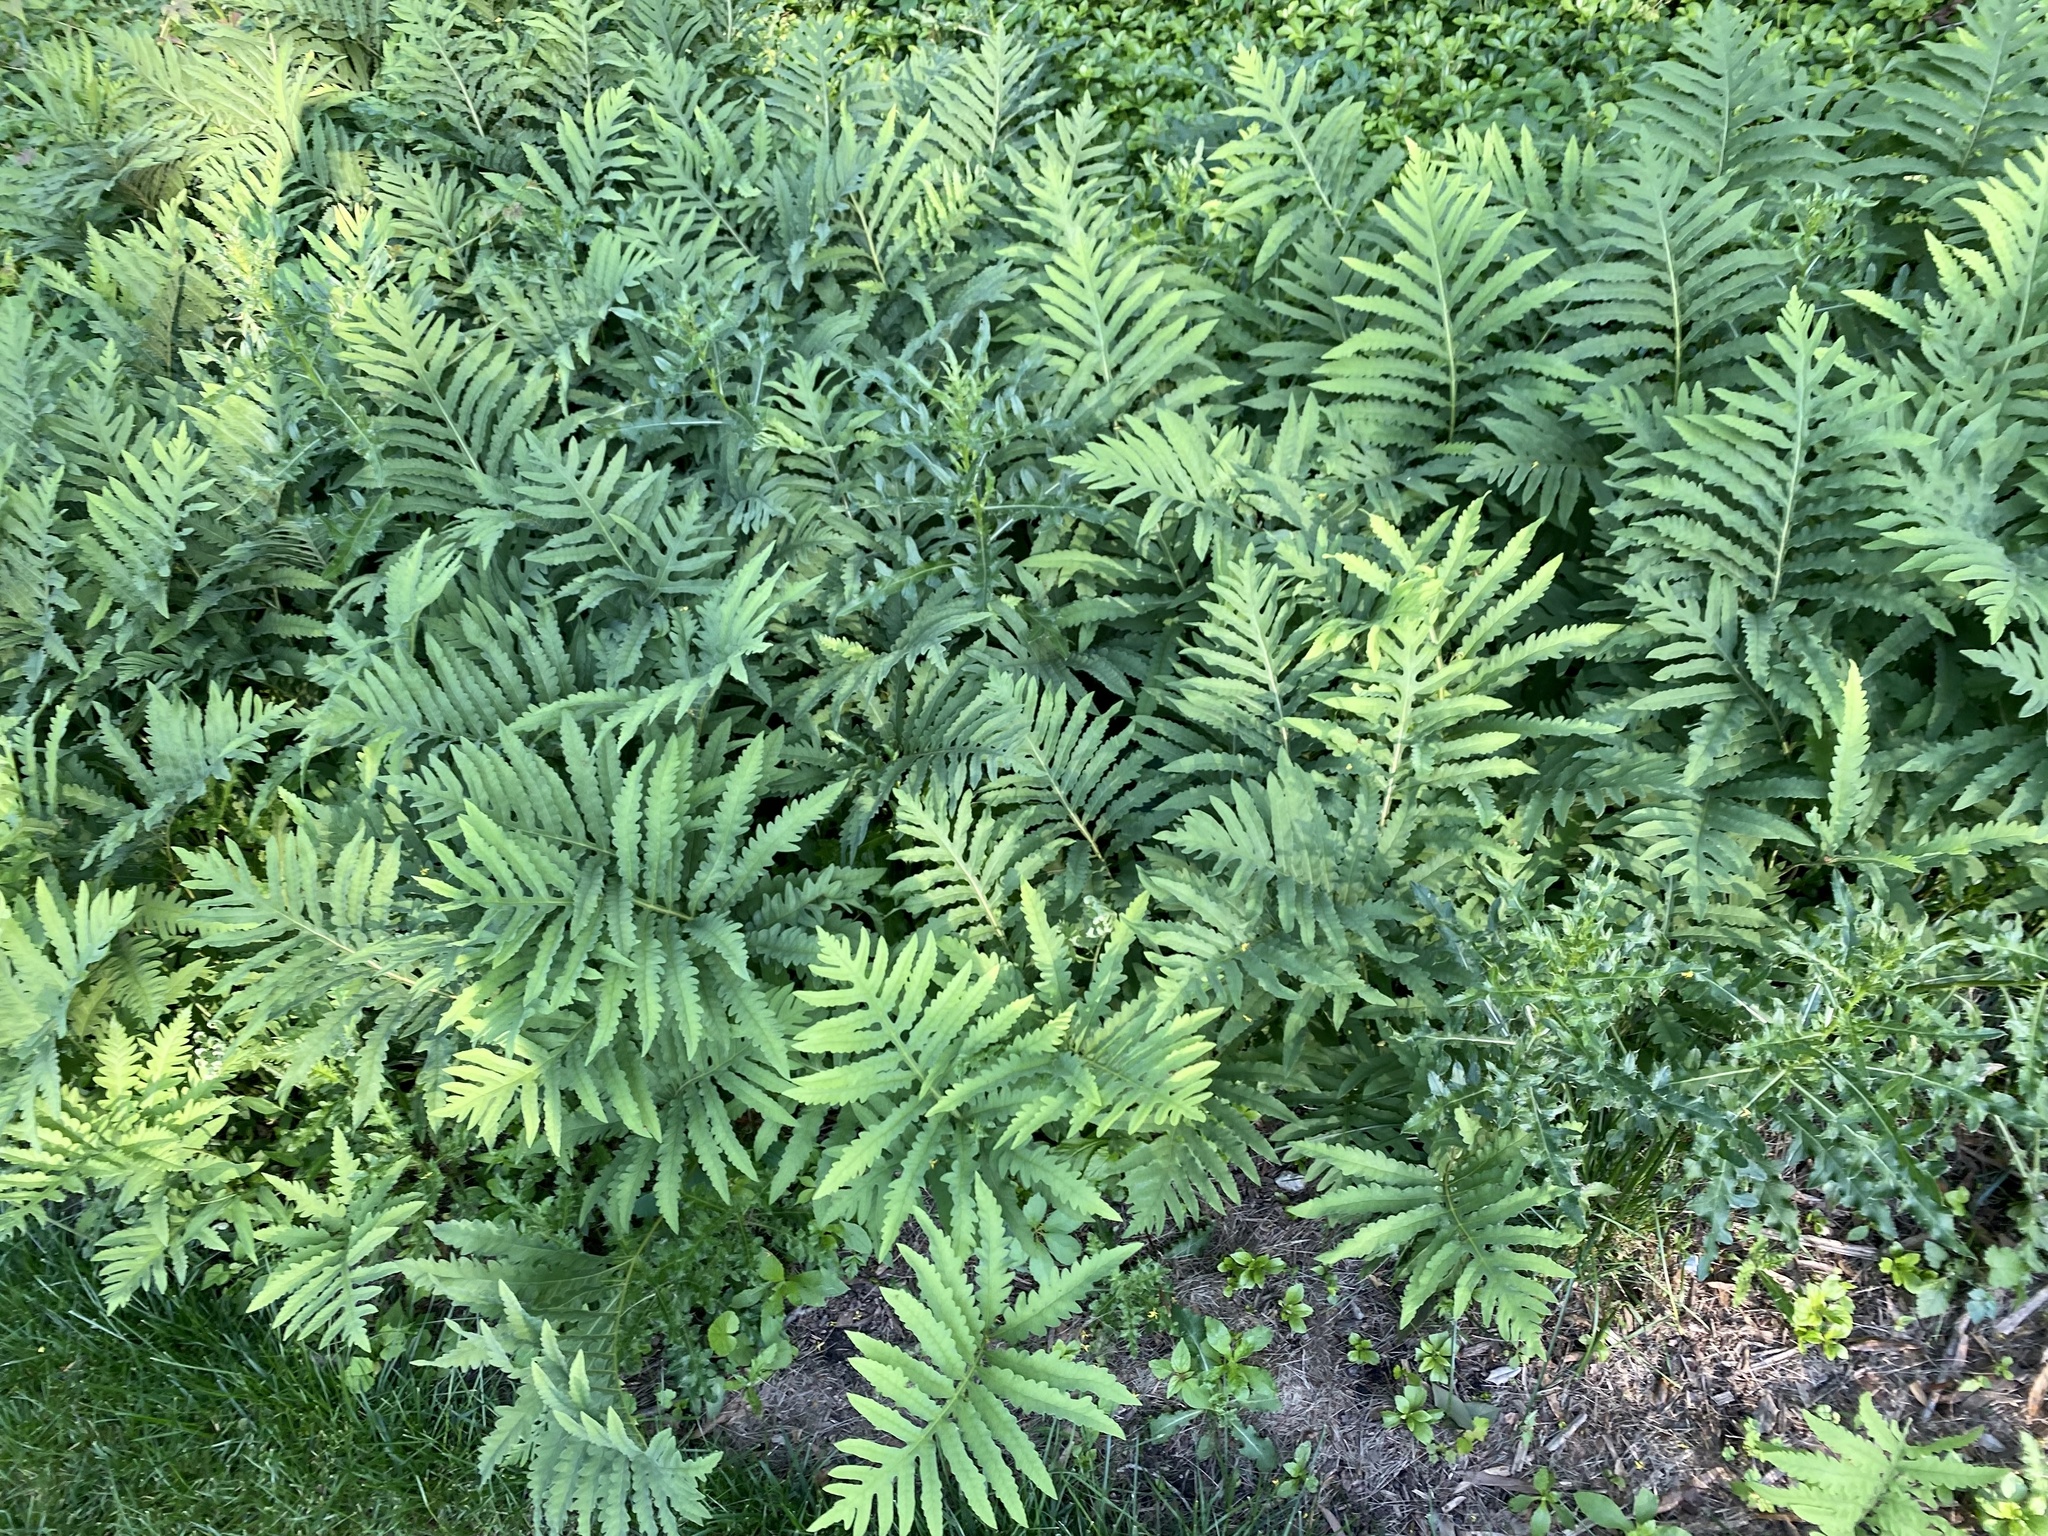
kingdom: Plantae
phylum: Tracheophyta
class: Polypodiopsida
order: Polypodiales
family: Onocleaceae
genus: Onoclea
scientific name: Onoclea sensibilis
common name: Sensitive fern
